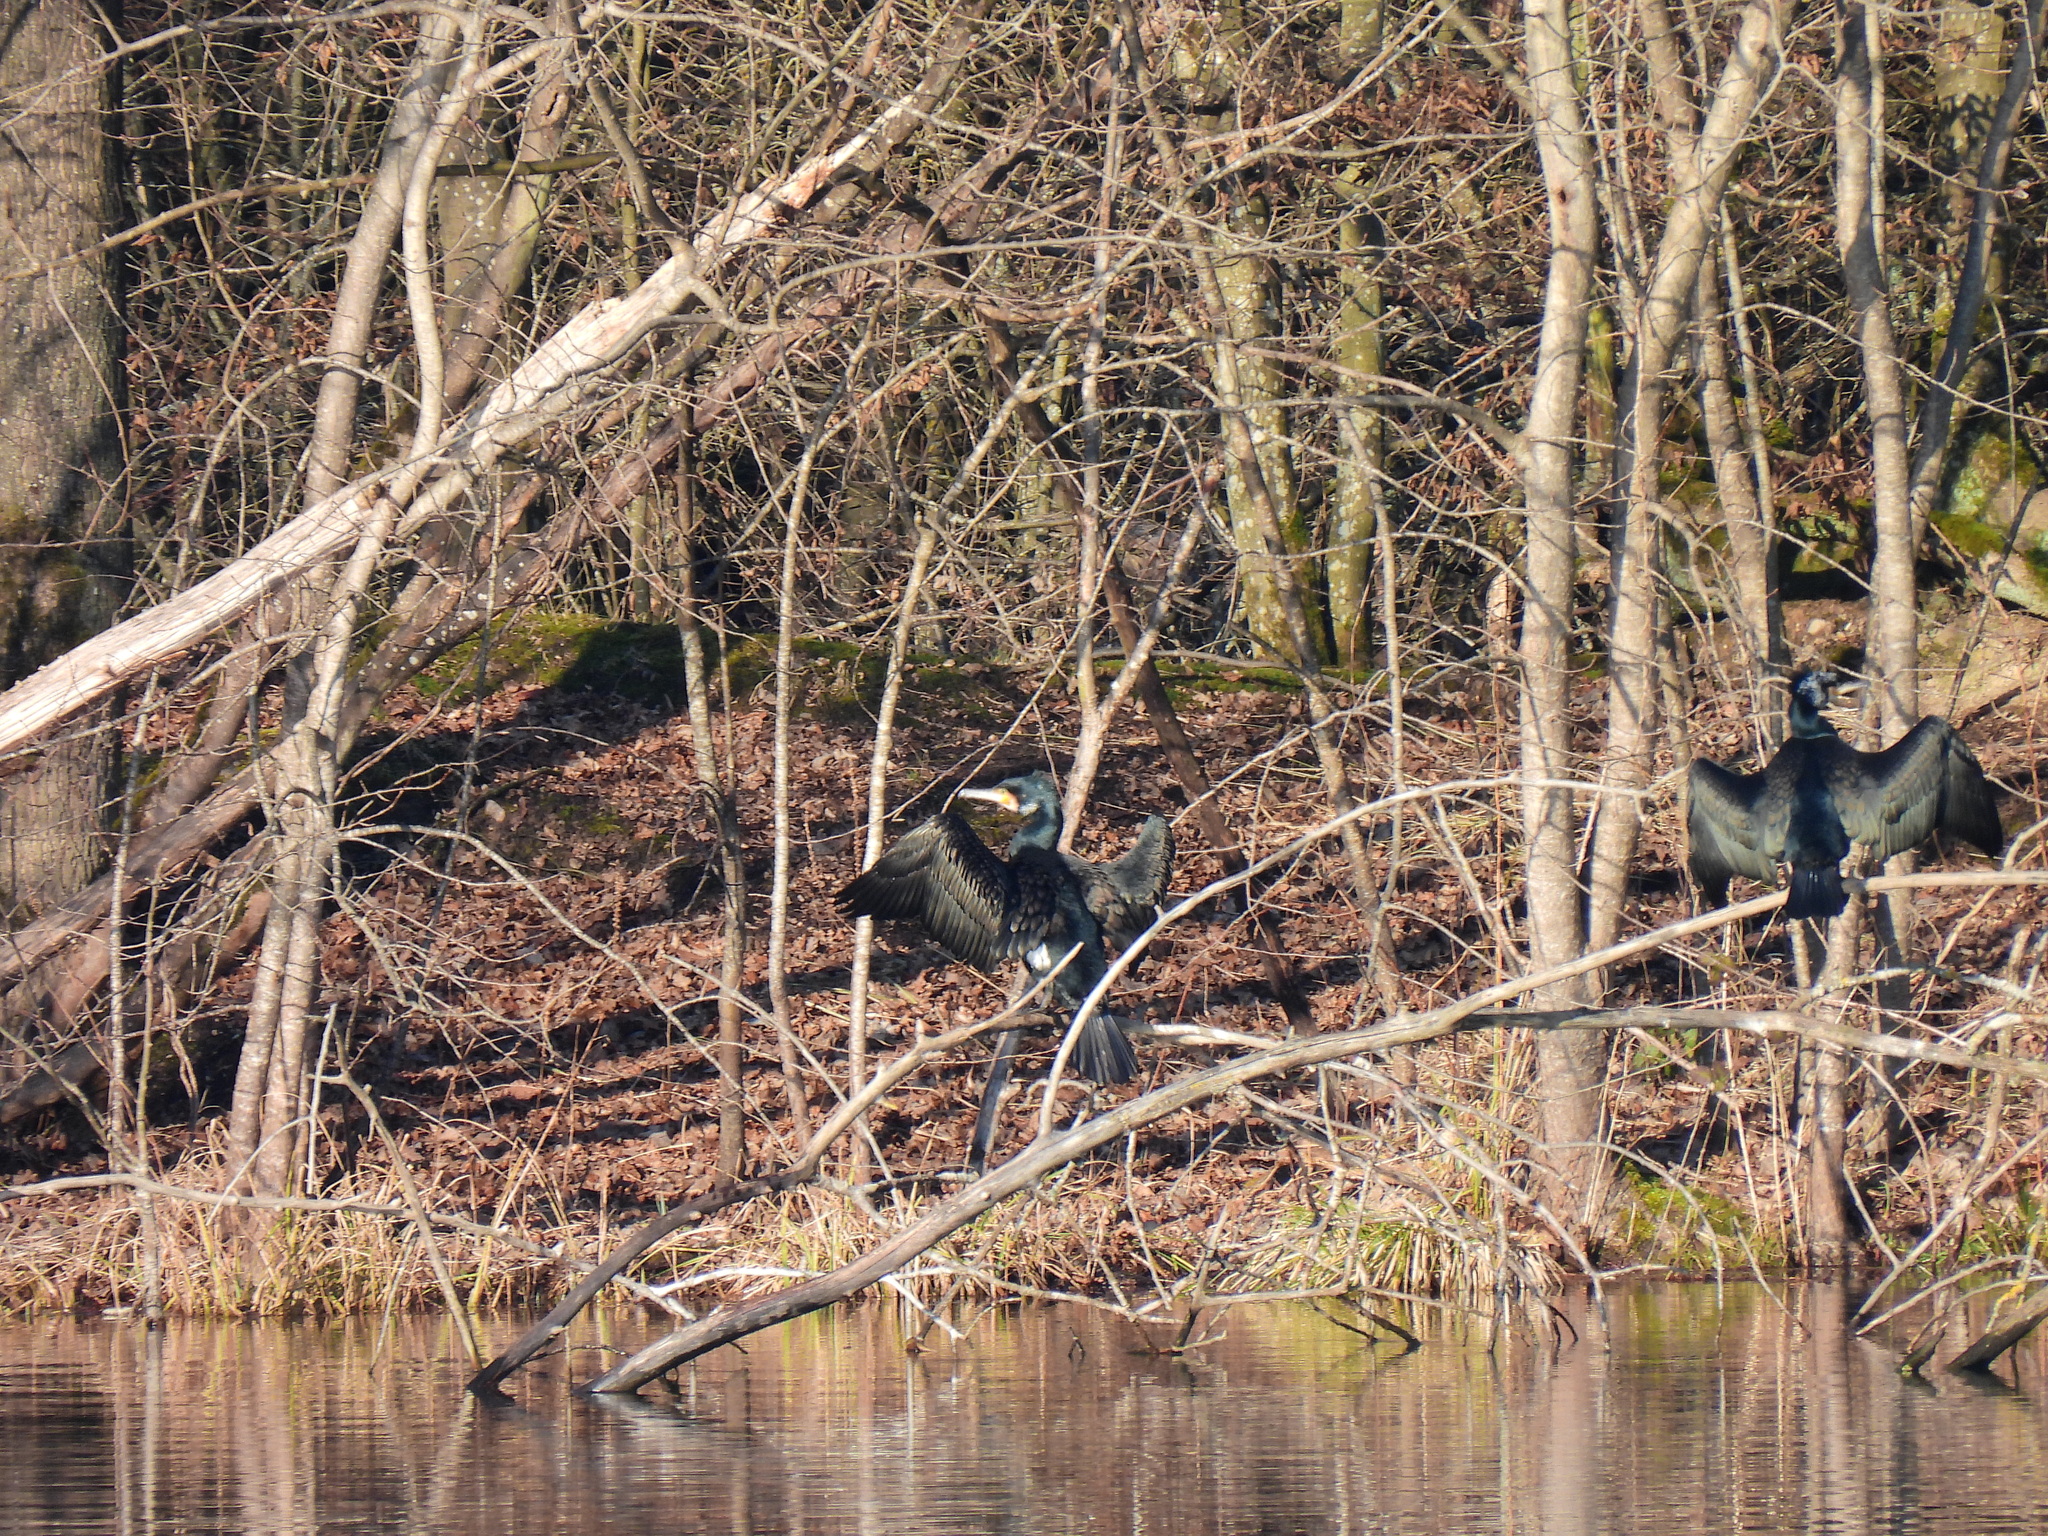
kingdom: Animalia
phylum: Chordata
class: Aves
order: Suliformes
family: Phalacrocoracidae
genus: Phalacrocorax
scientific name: Phalacrocorax carbo
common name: Great cormorant
